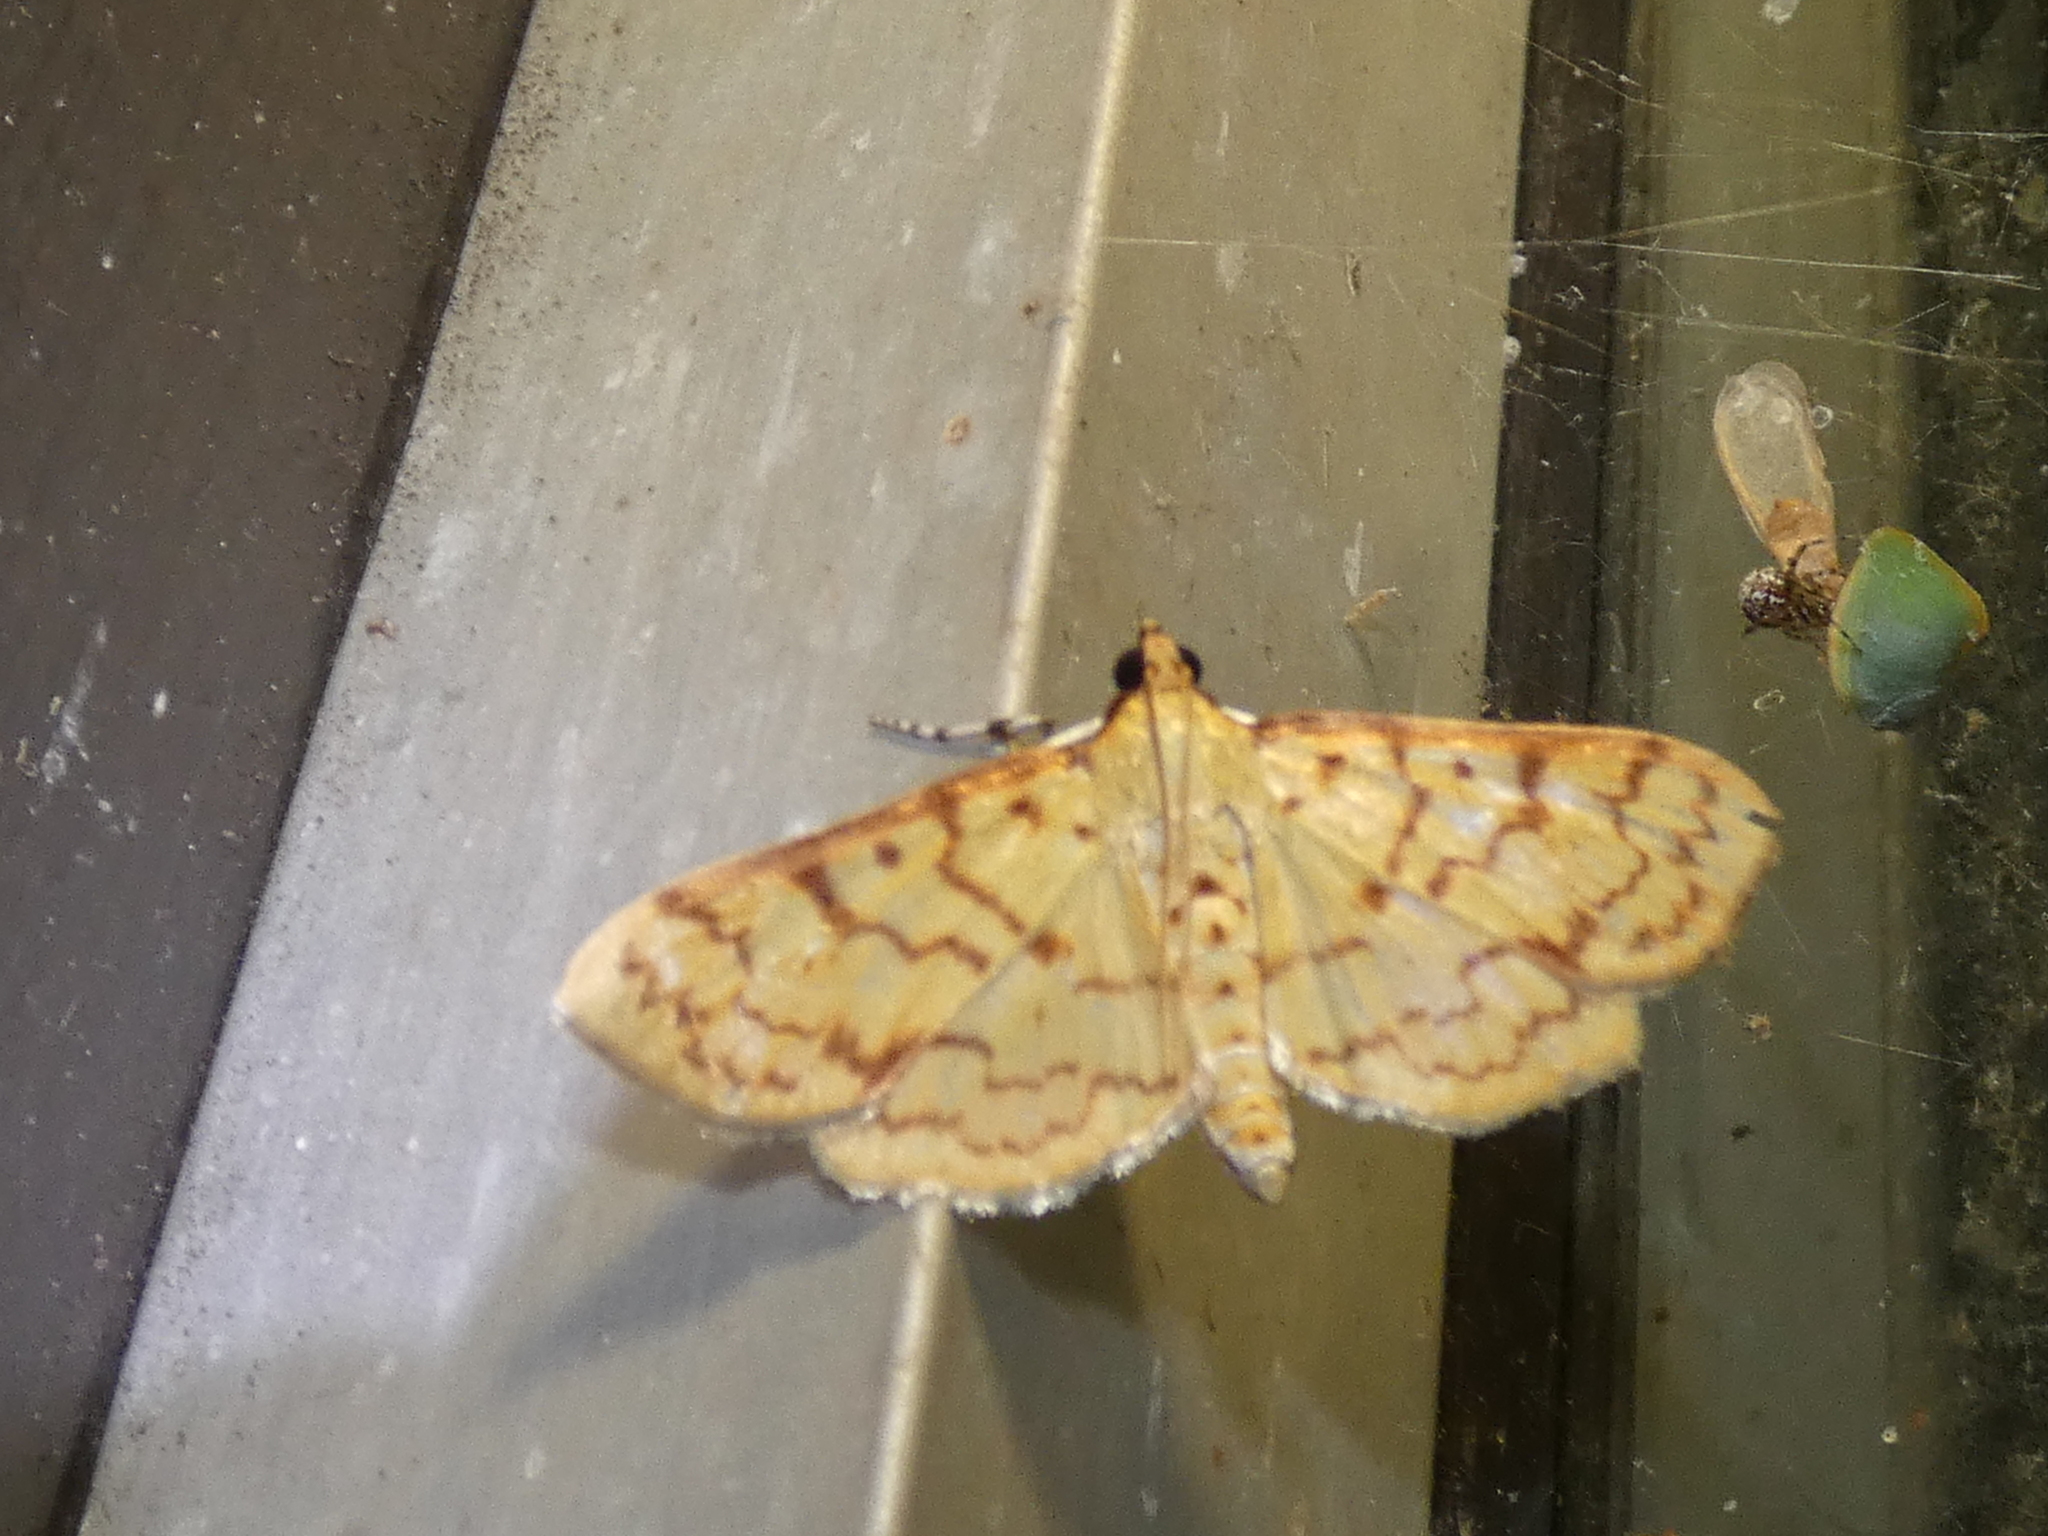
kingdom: Animalia
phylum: Arthropoda
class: Insecta
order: Lepidoptera
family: Crambidae
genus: Polygrammodes
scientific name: Polygrammodes flavidalis
